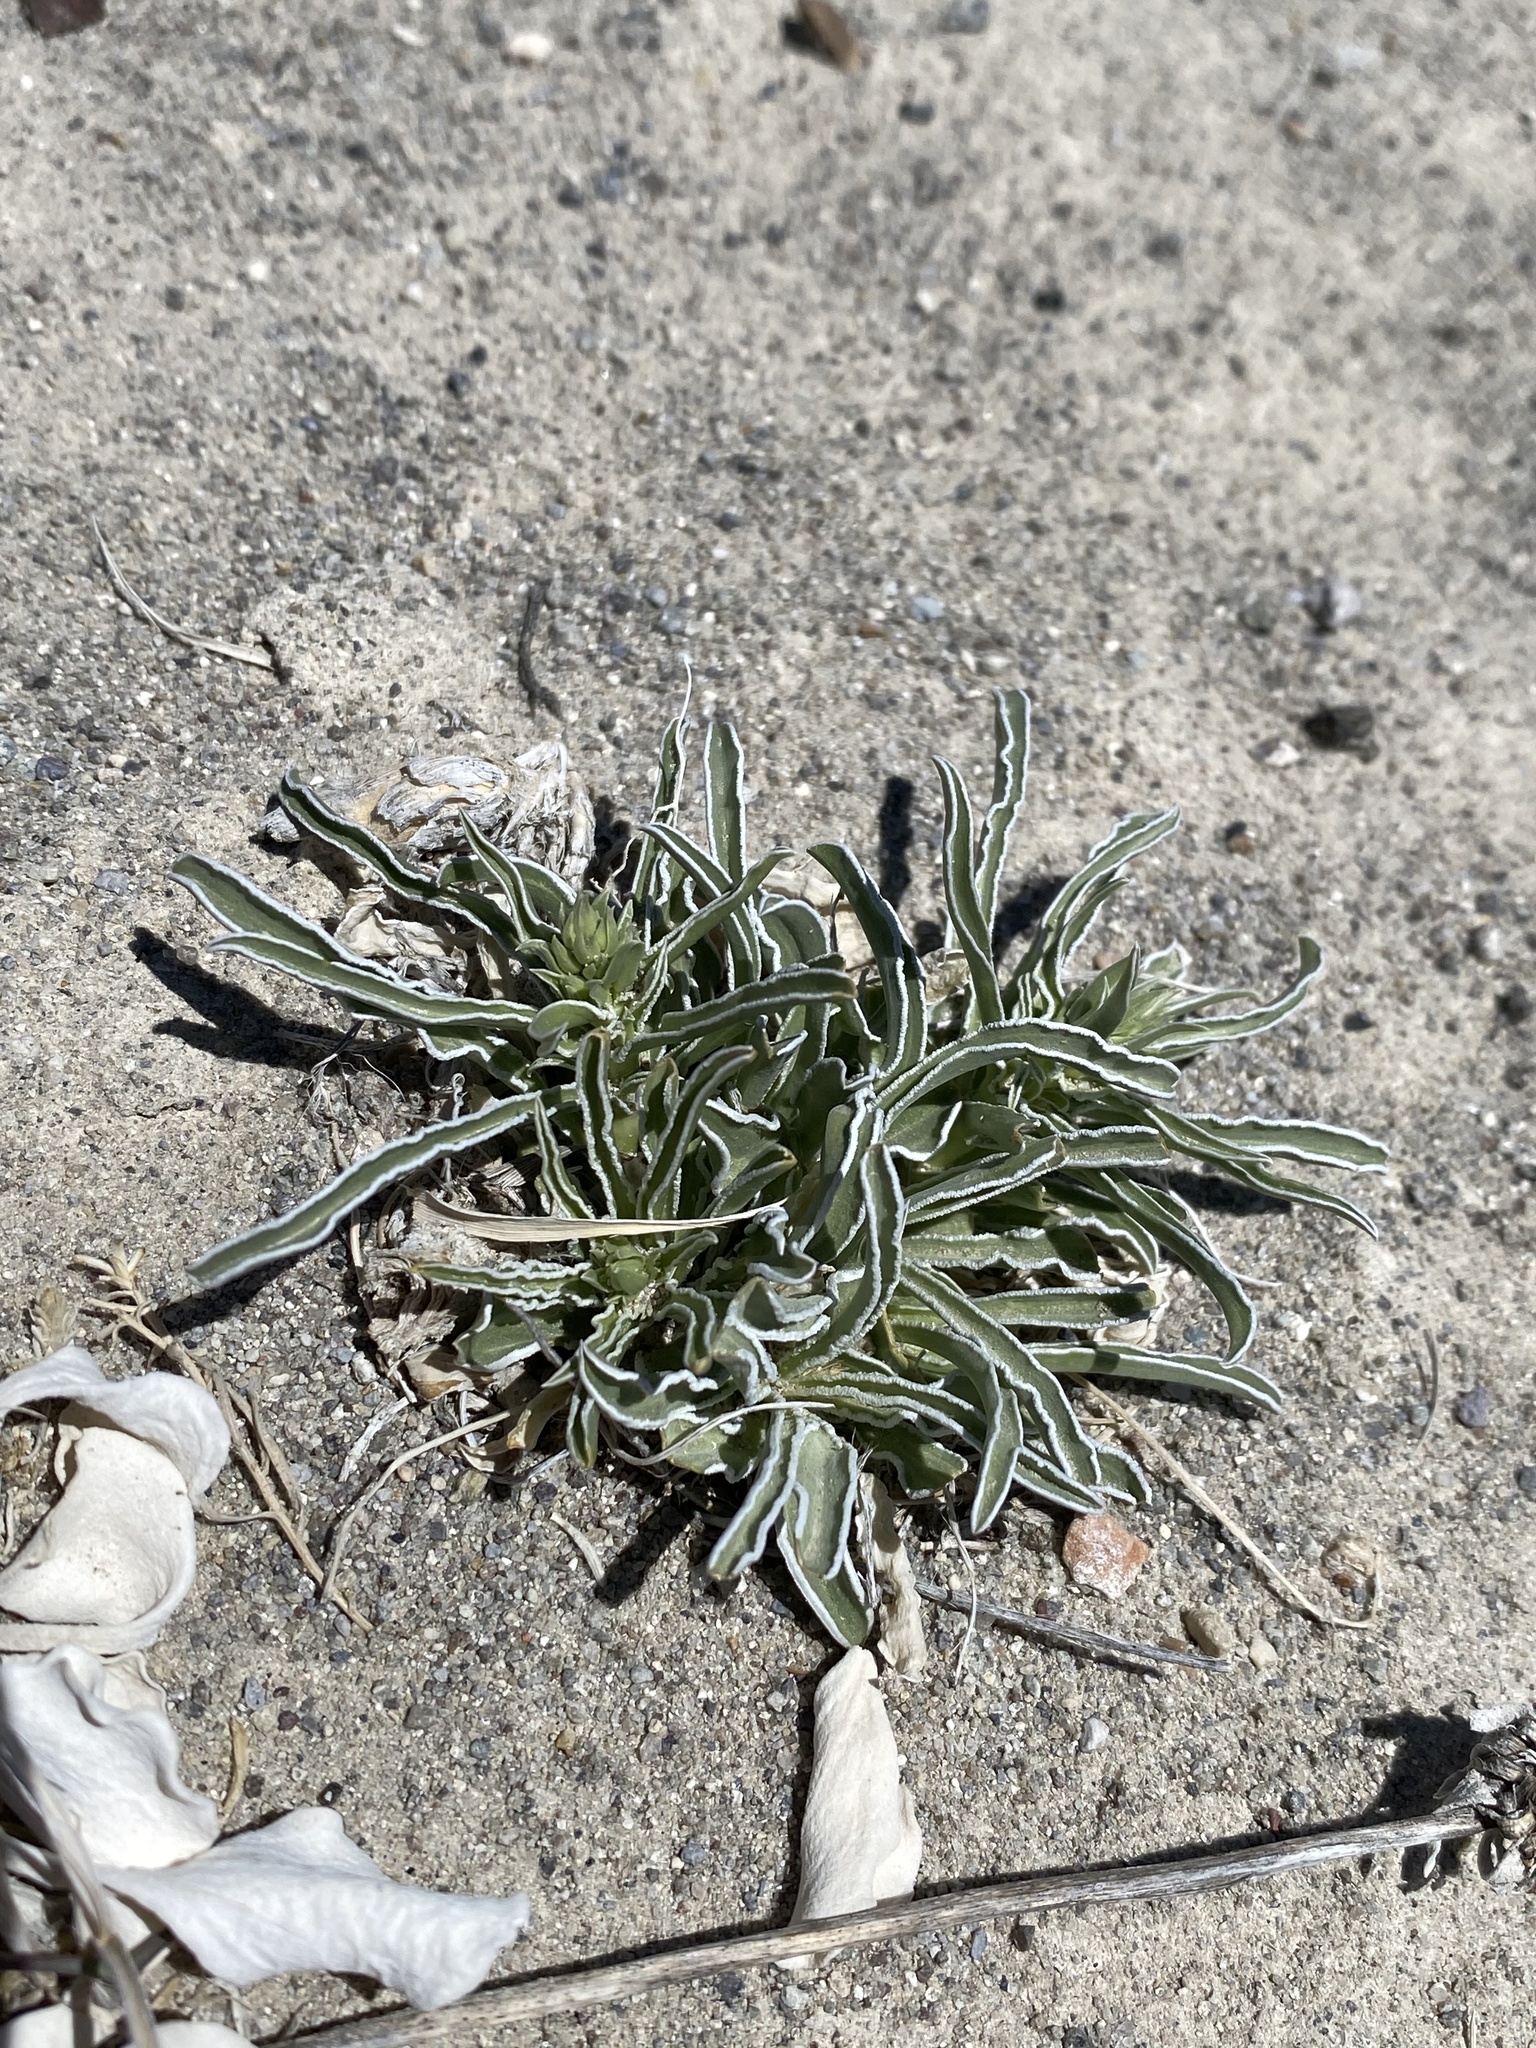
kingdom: Plantae
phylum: Tracheophyta
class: Magnoliopsida
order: Gentianales
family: Gentianaceae
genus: Frasera
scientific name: Frasera gypsicola
